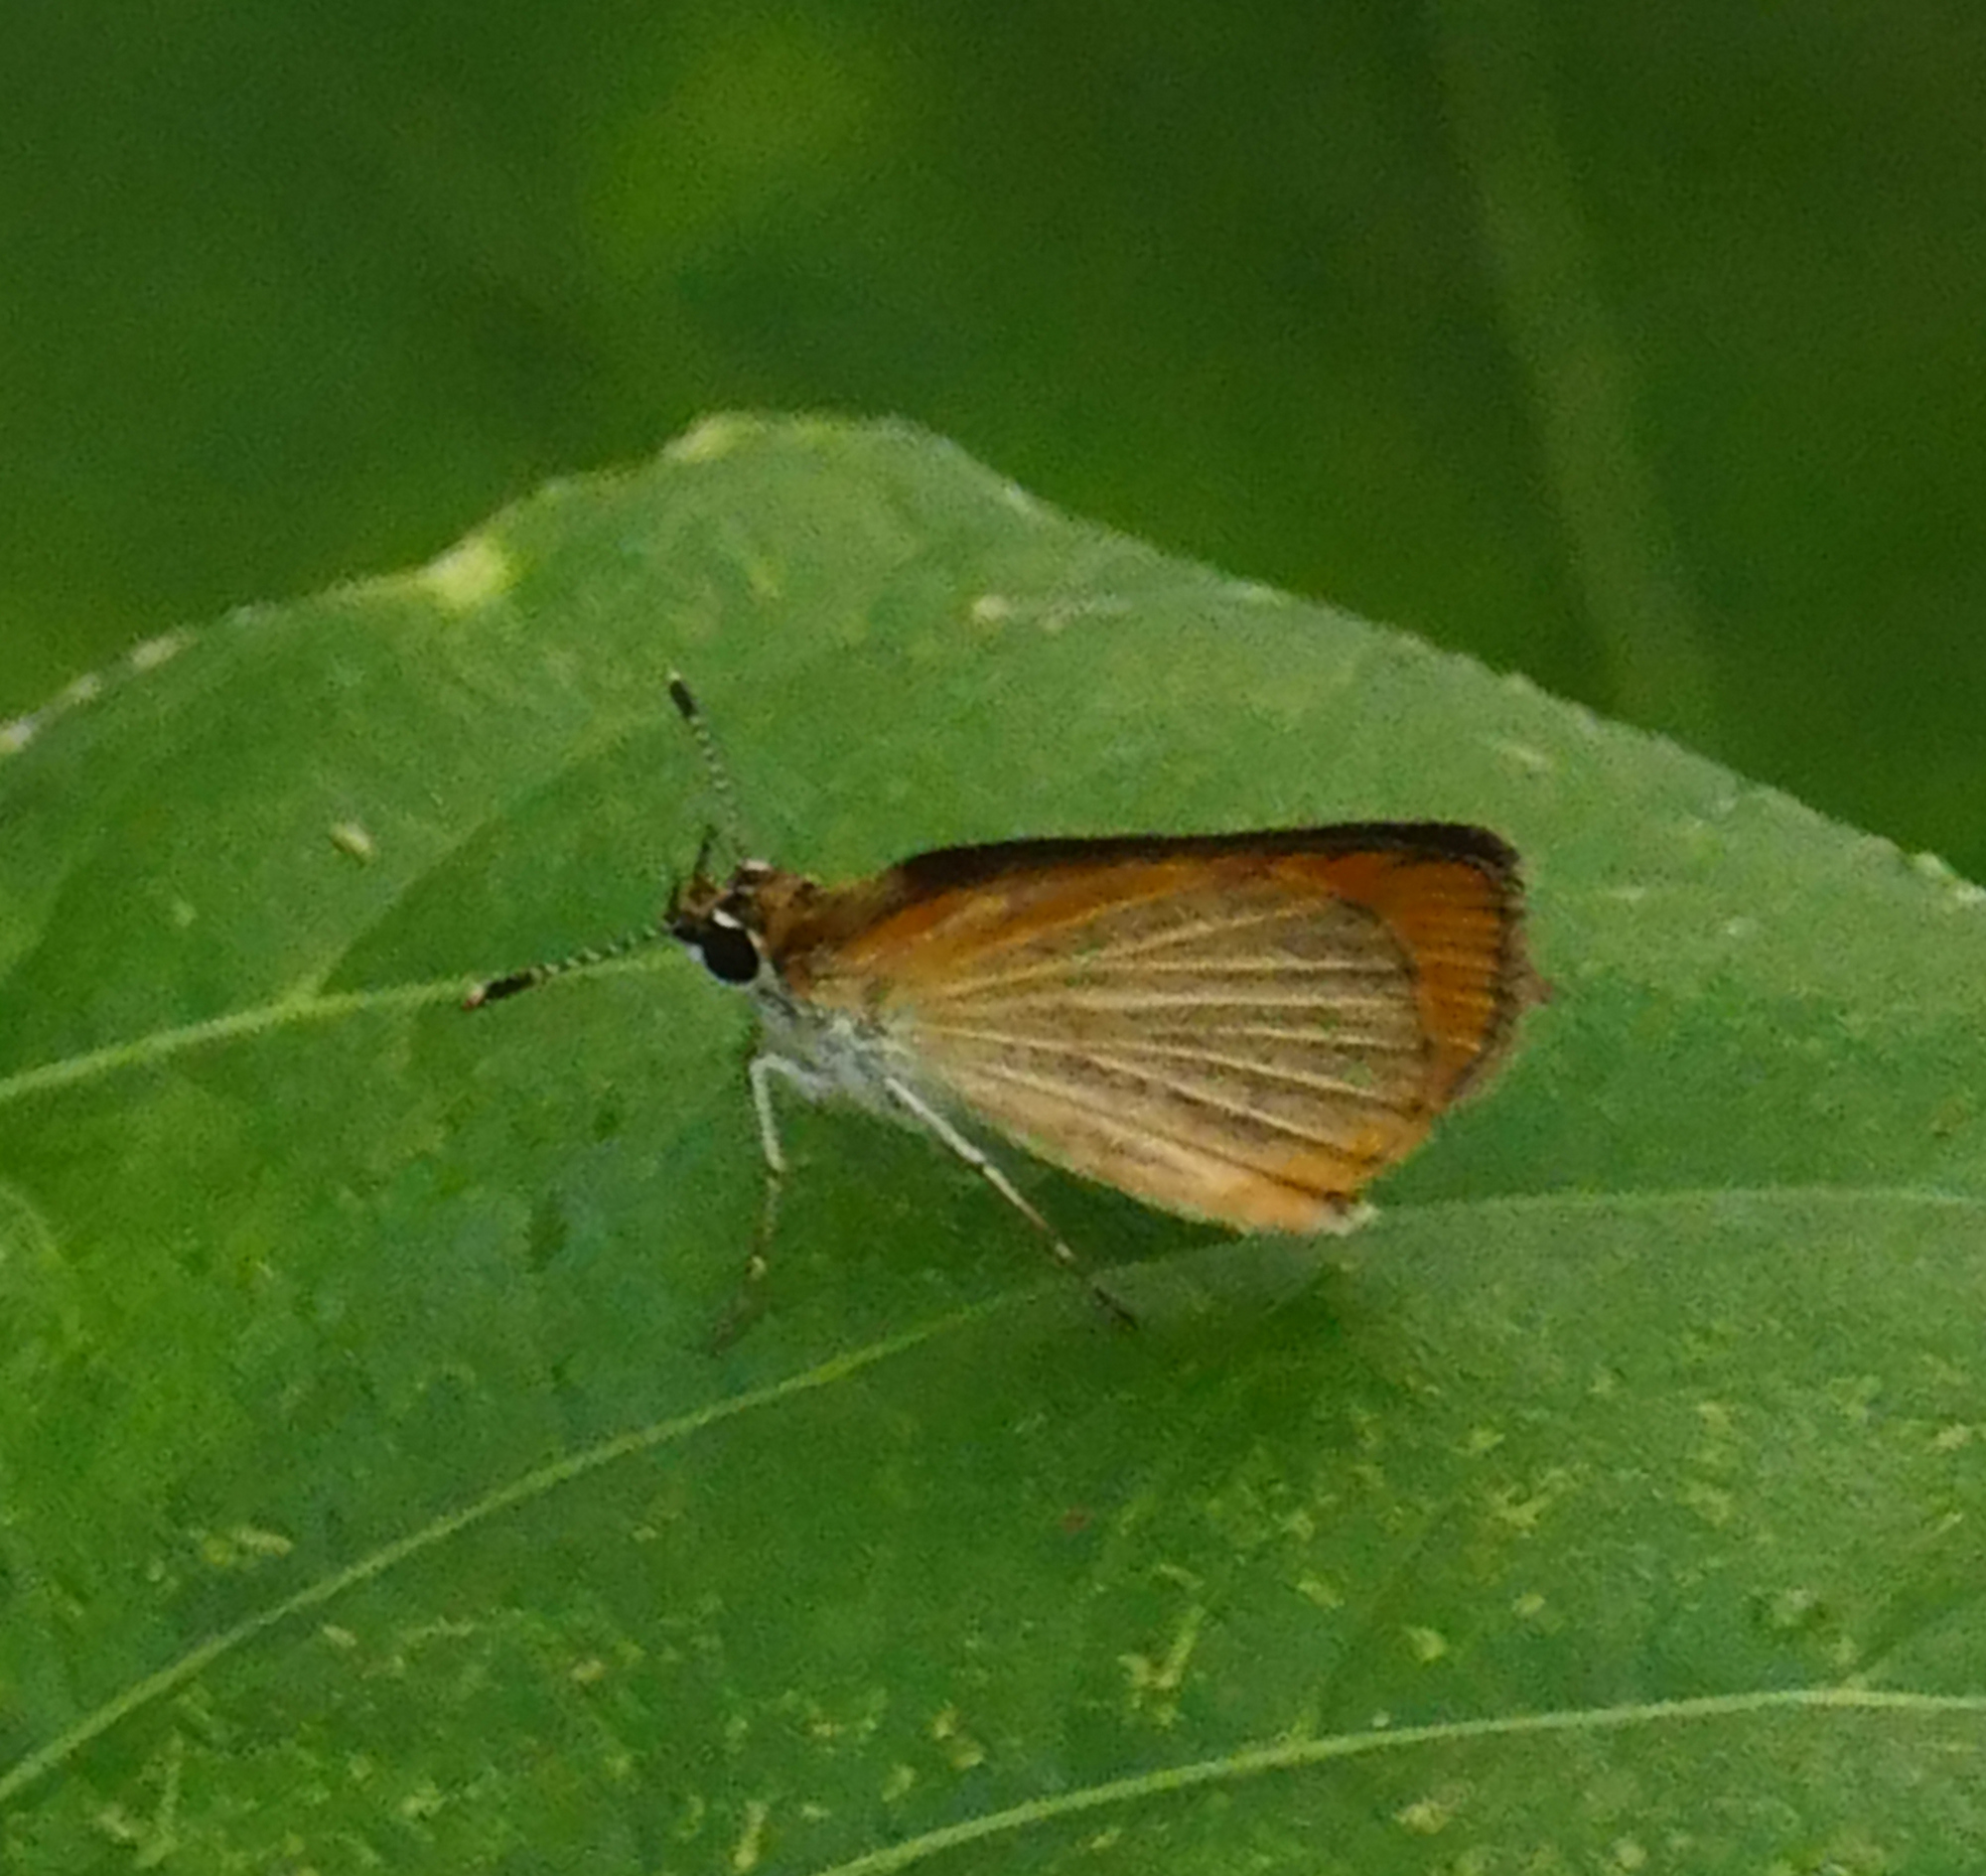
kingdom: Animalia
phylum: Arthropoda
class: Insecta
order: Lepidoptera
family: Hesperiidae
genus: Ancyloxypha
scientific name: Ancyloxypha numitor
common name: Least skipper
